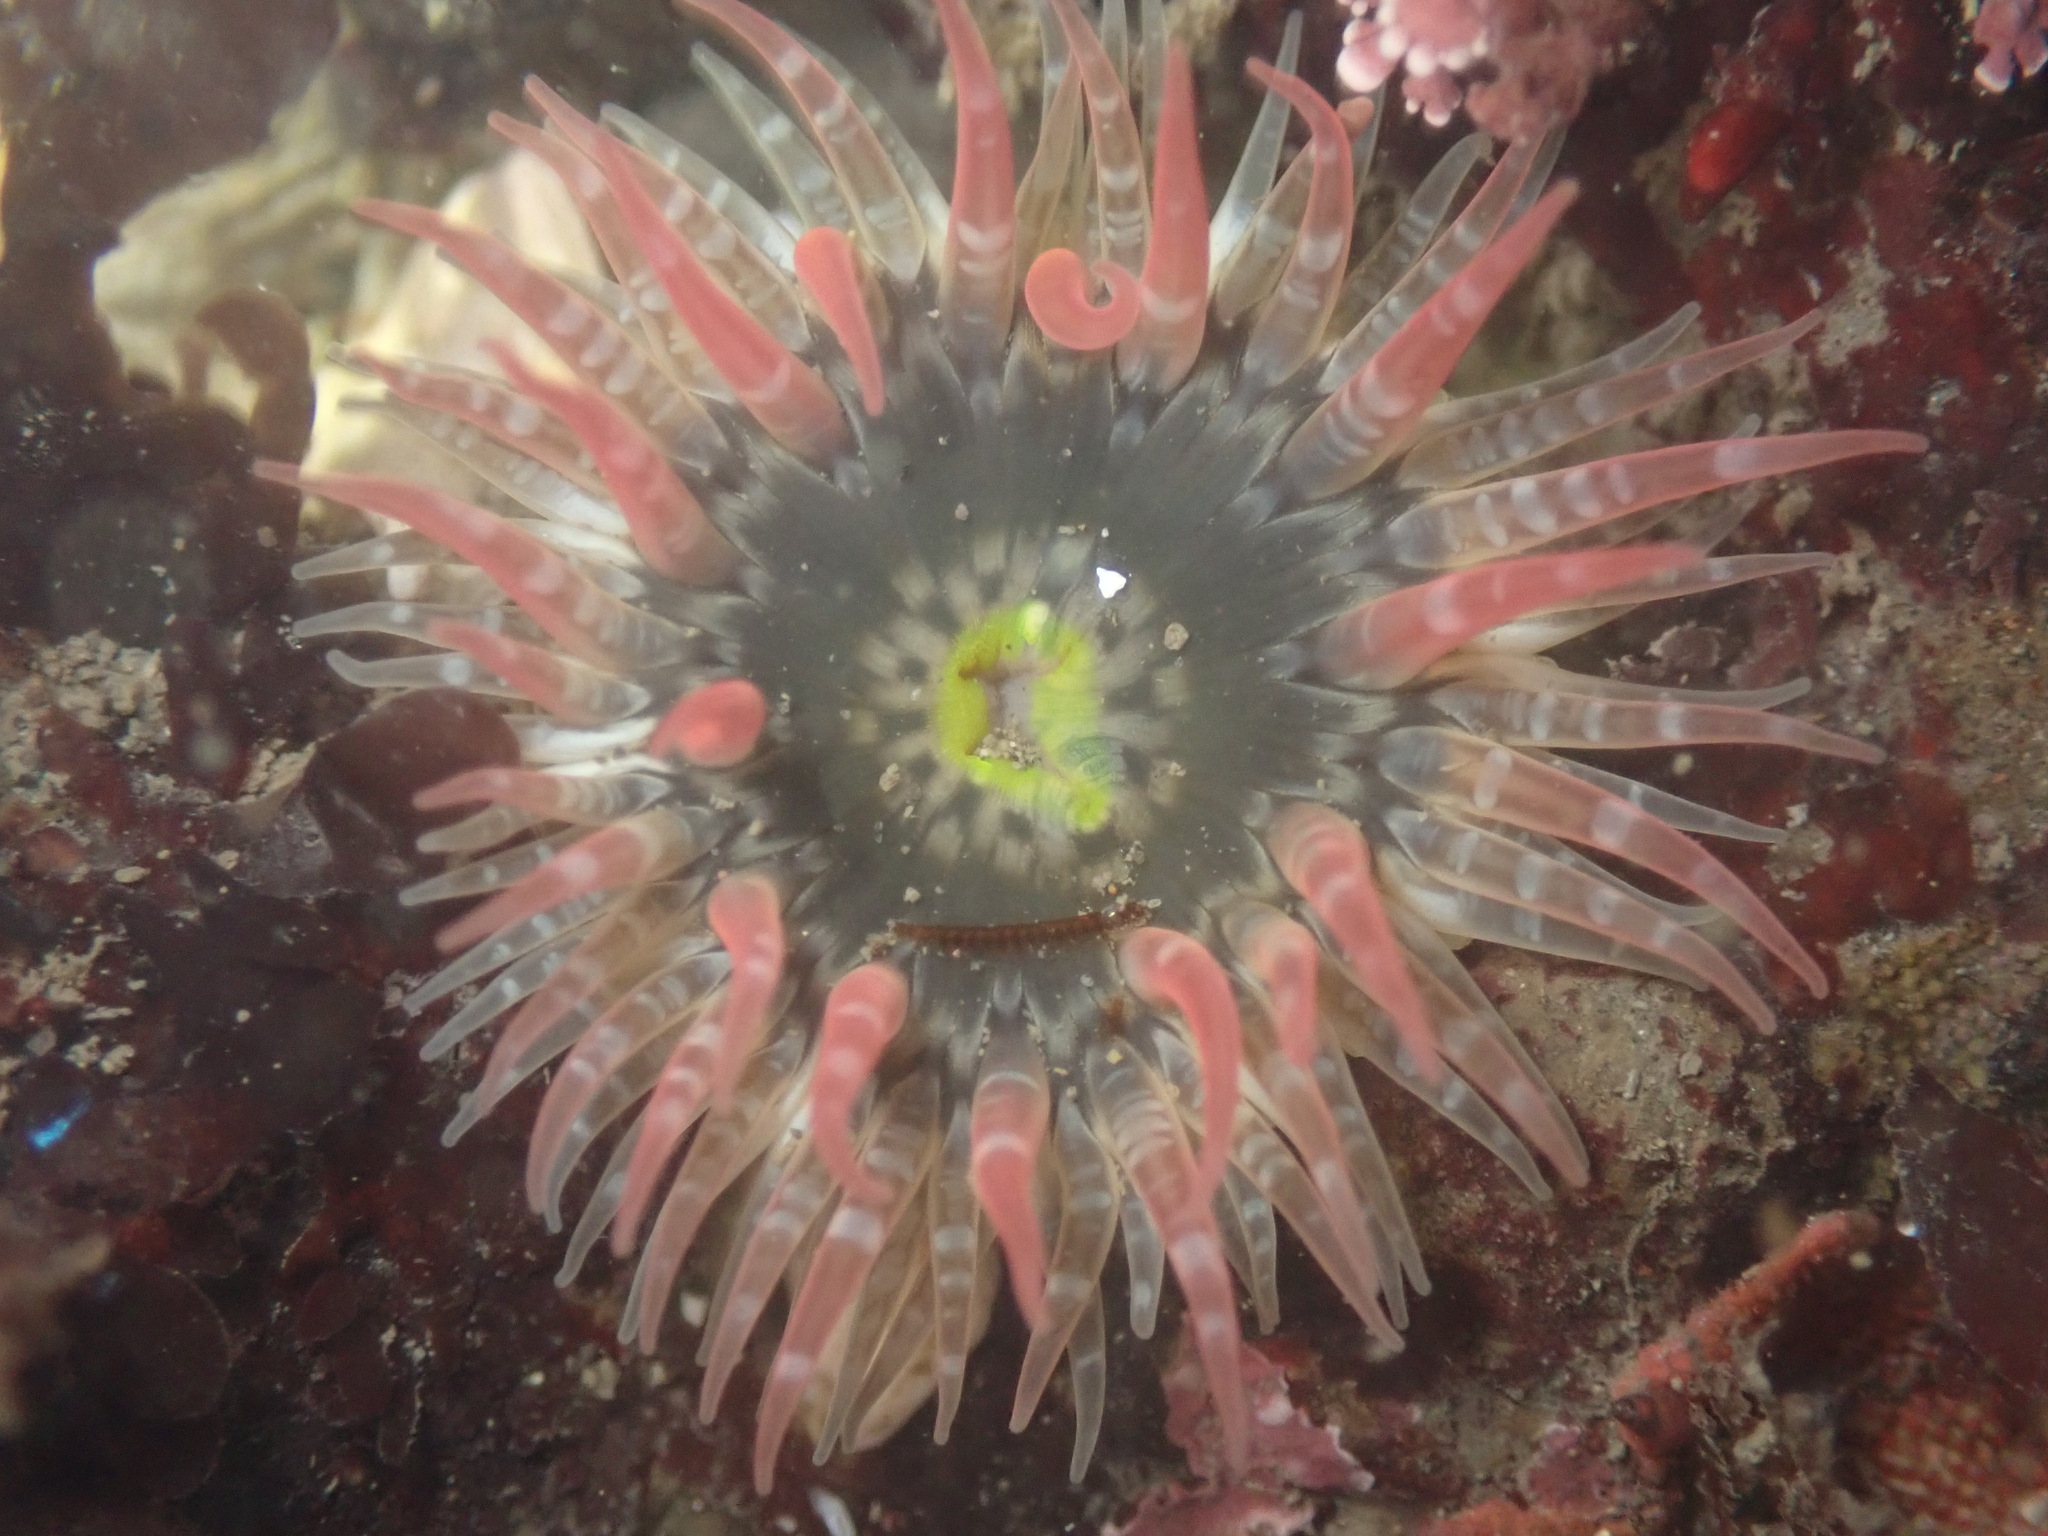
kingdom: Animalia
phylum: Cnidaria
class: Anthozoa
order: Actiniaria
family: Actiniidae
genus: Anthopleura
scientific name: Anthopleura artemisia
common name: Buried sea anemone
